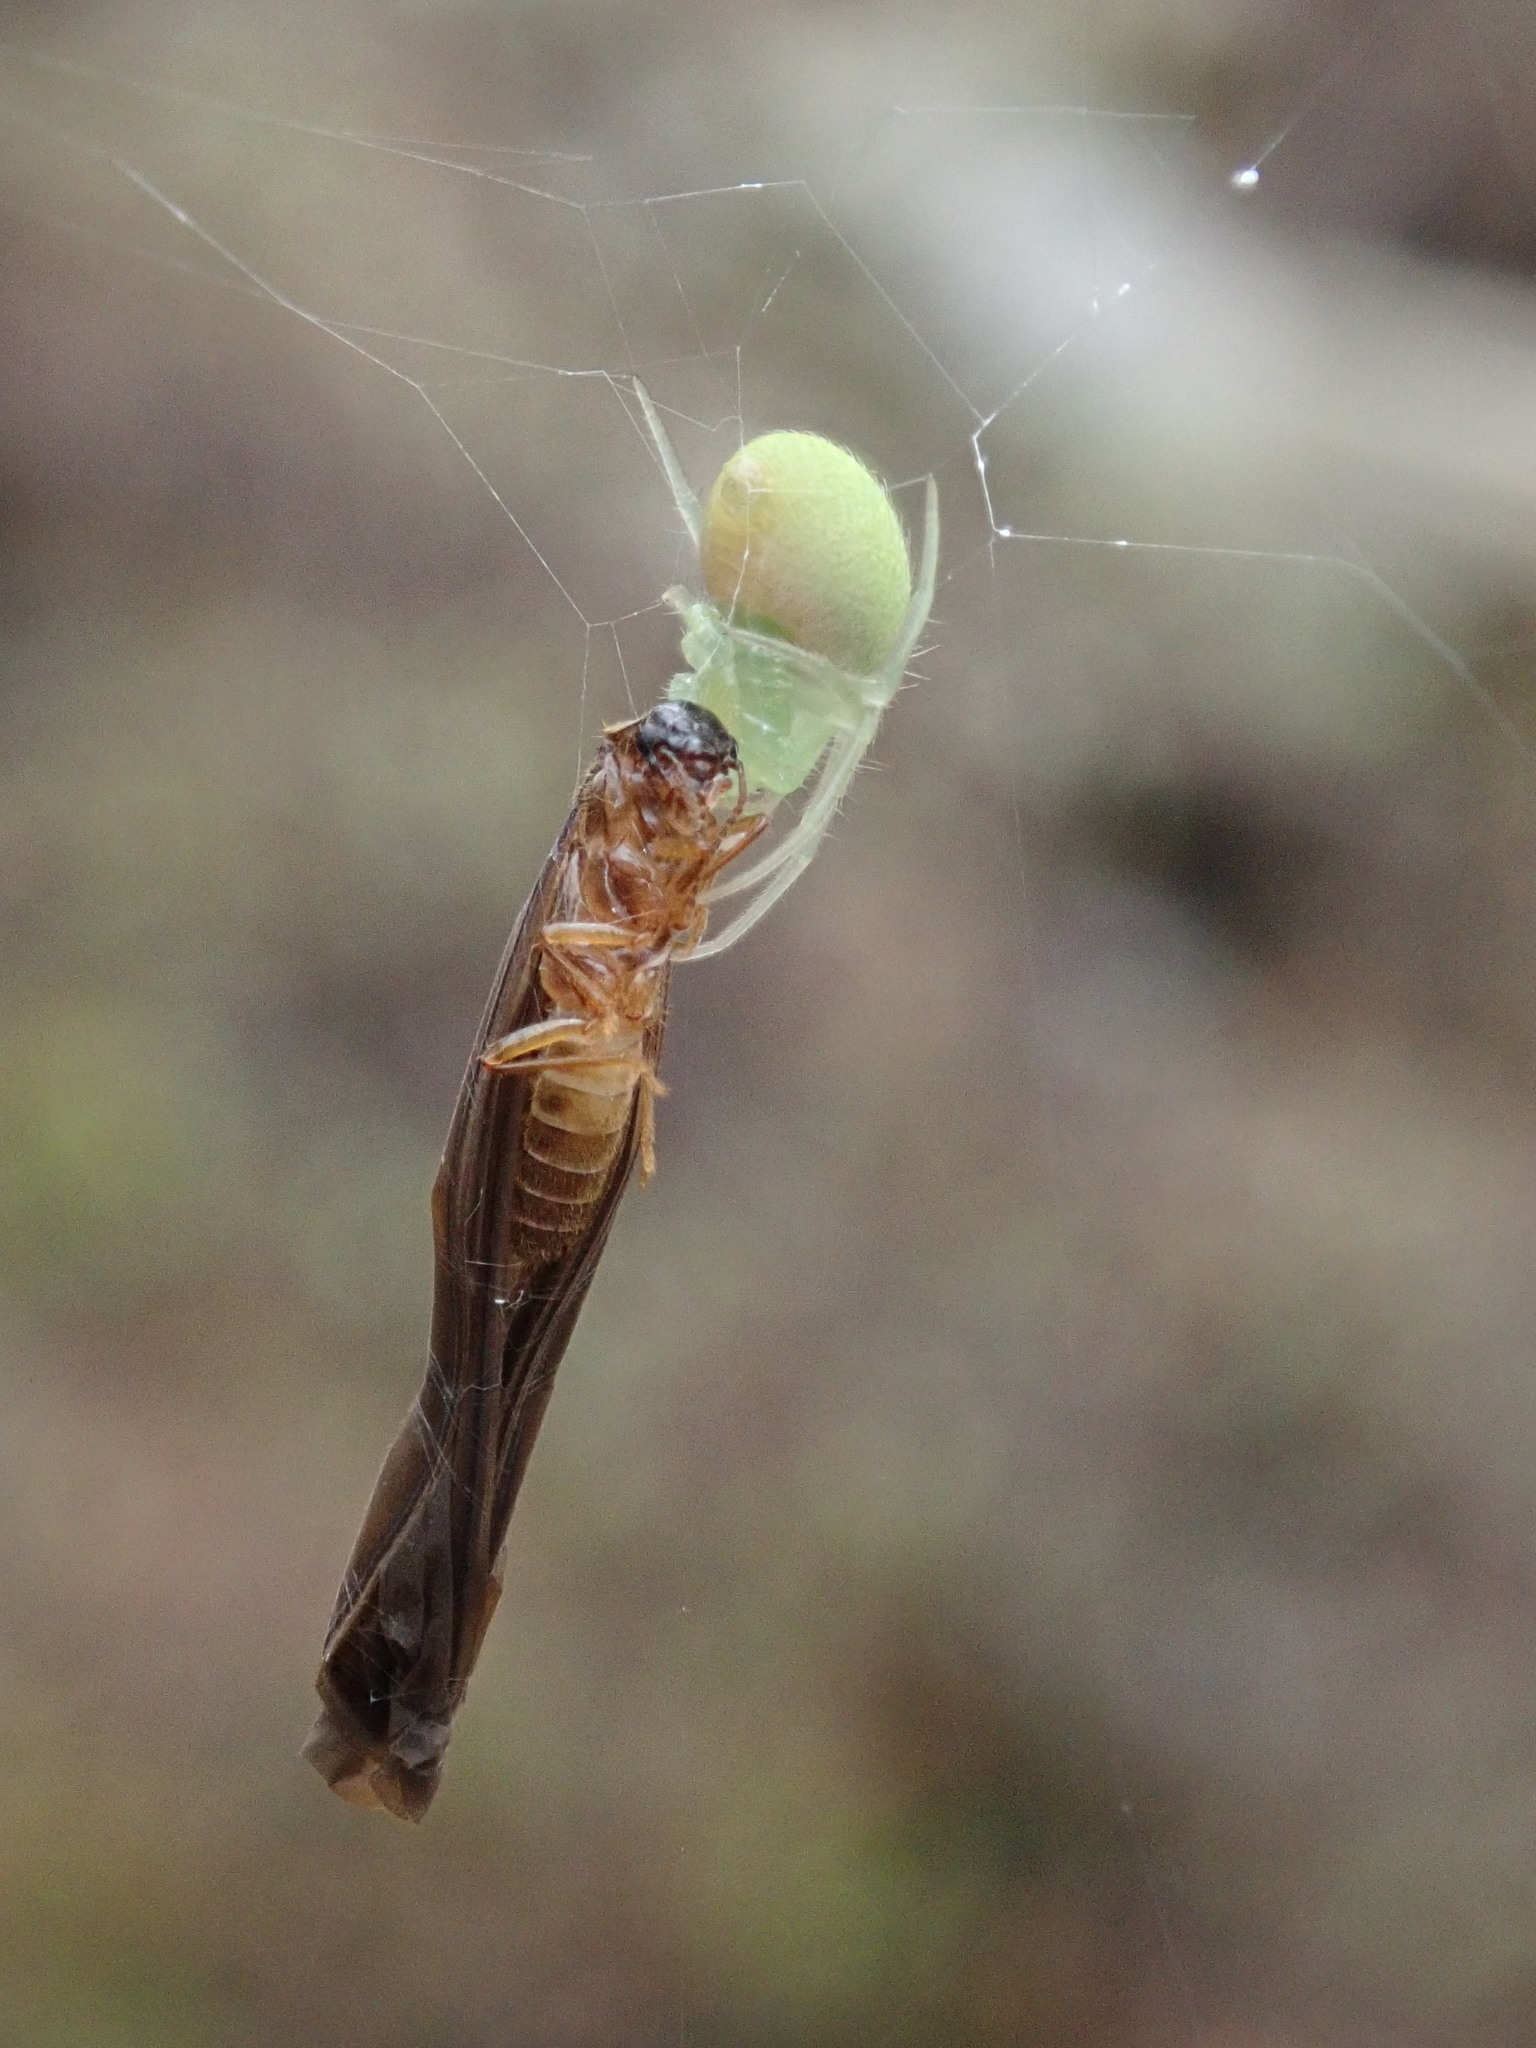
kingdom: Animalia
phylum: Arthropoda
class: Arachnida
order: Araneae
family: Araneidae
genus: Araneus
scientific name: Araneus uniformis
